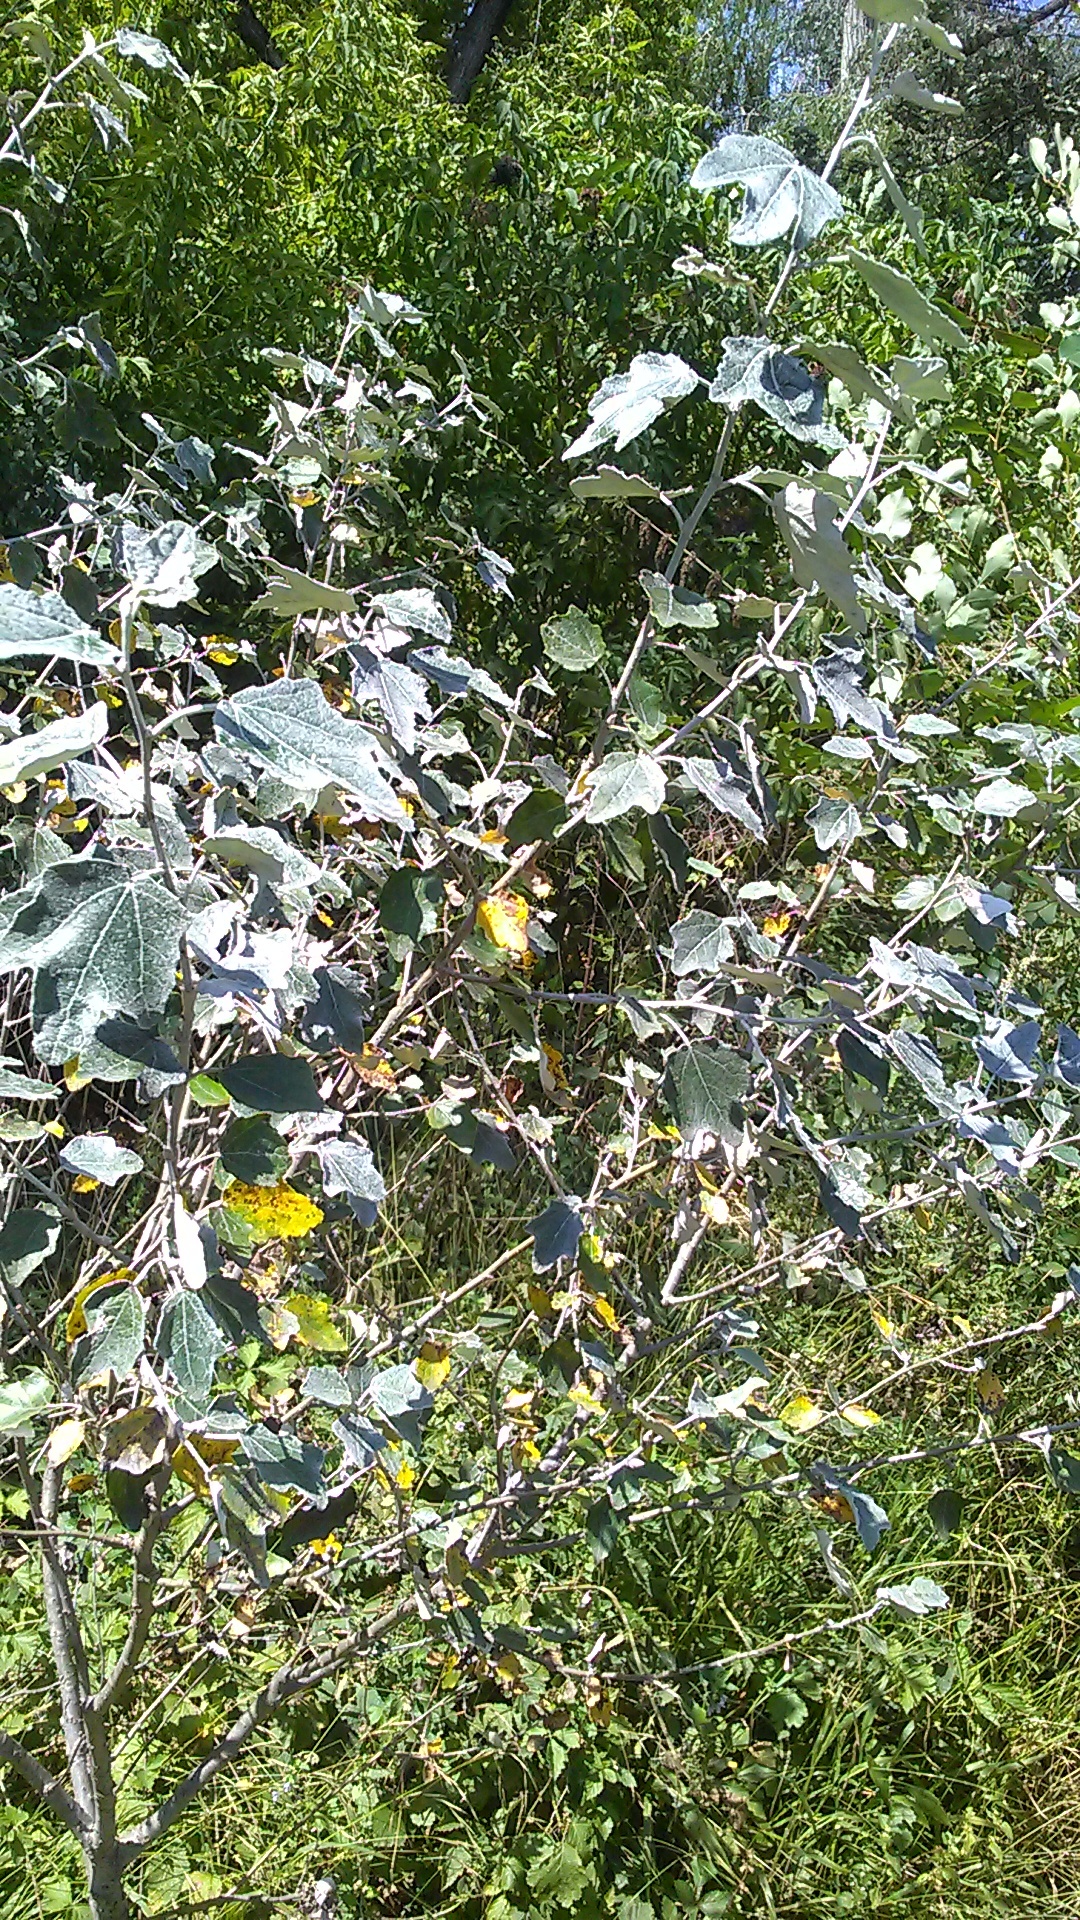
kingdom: Plantae
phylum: Tracheophyta
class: Magnoliopsida
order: Malpighiales
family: Salicaceae
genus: Populus
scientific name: Populus alba
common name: White poplar
